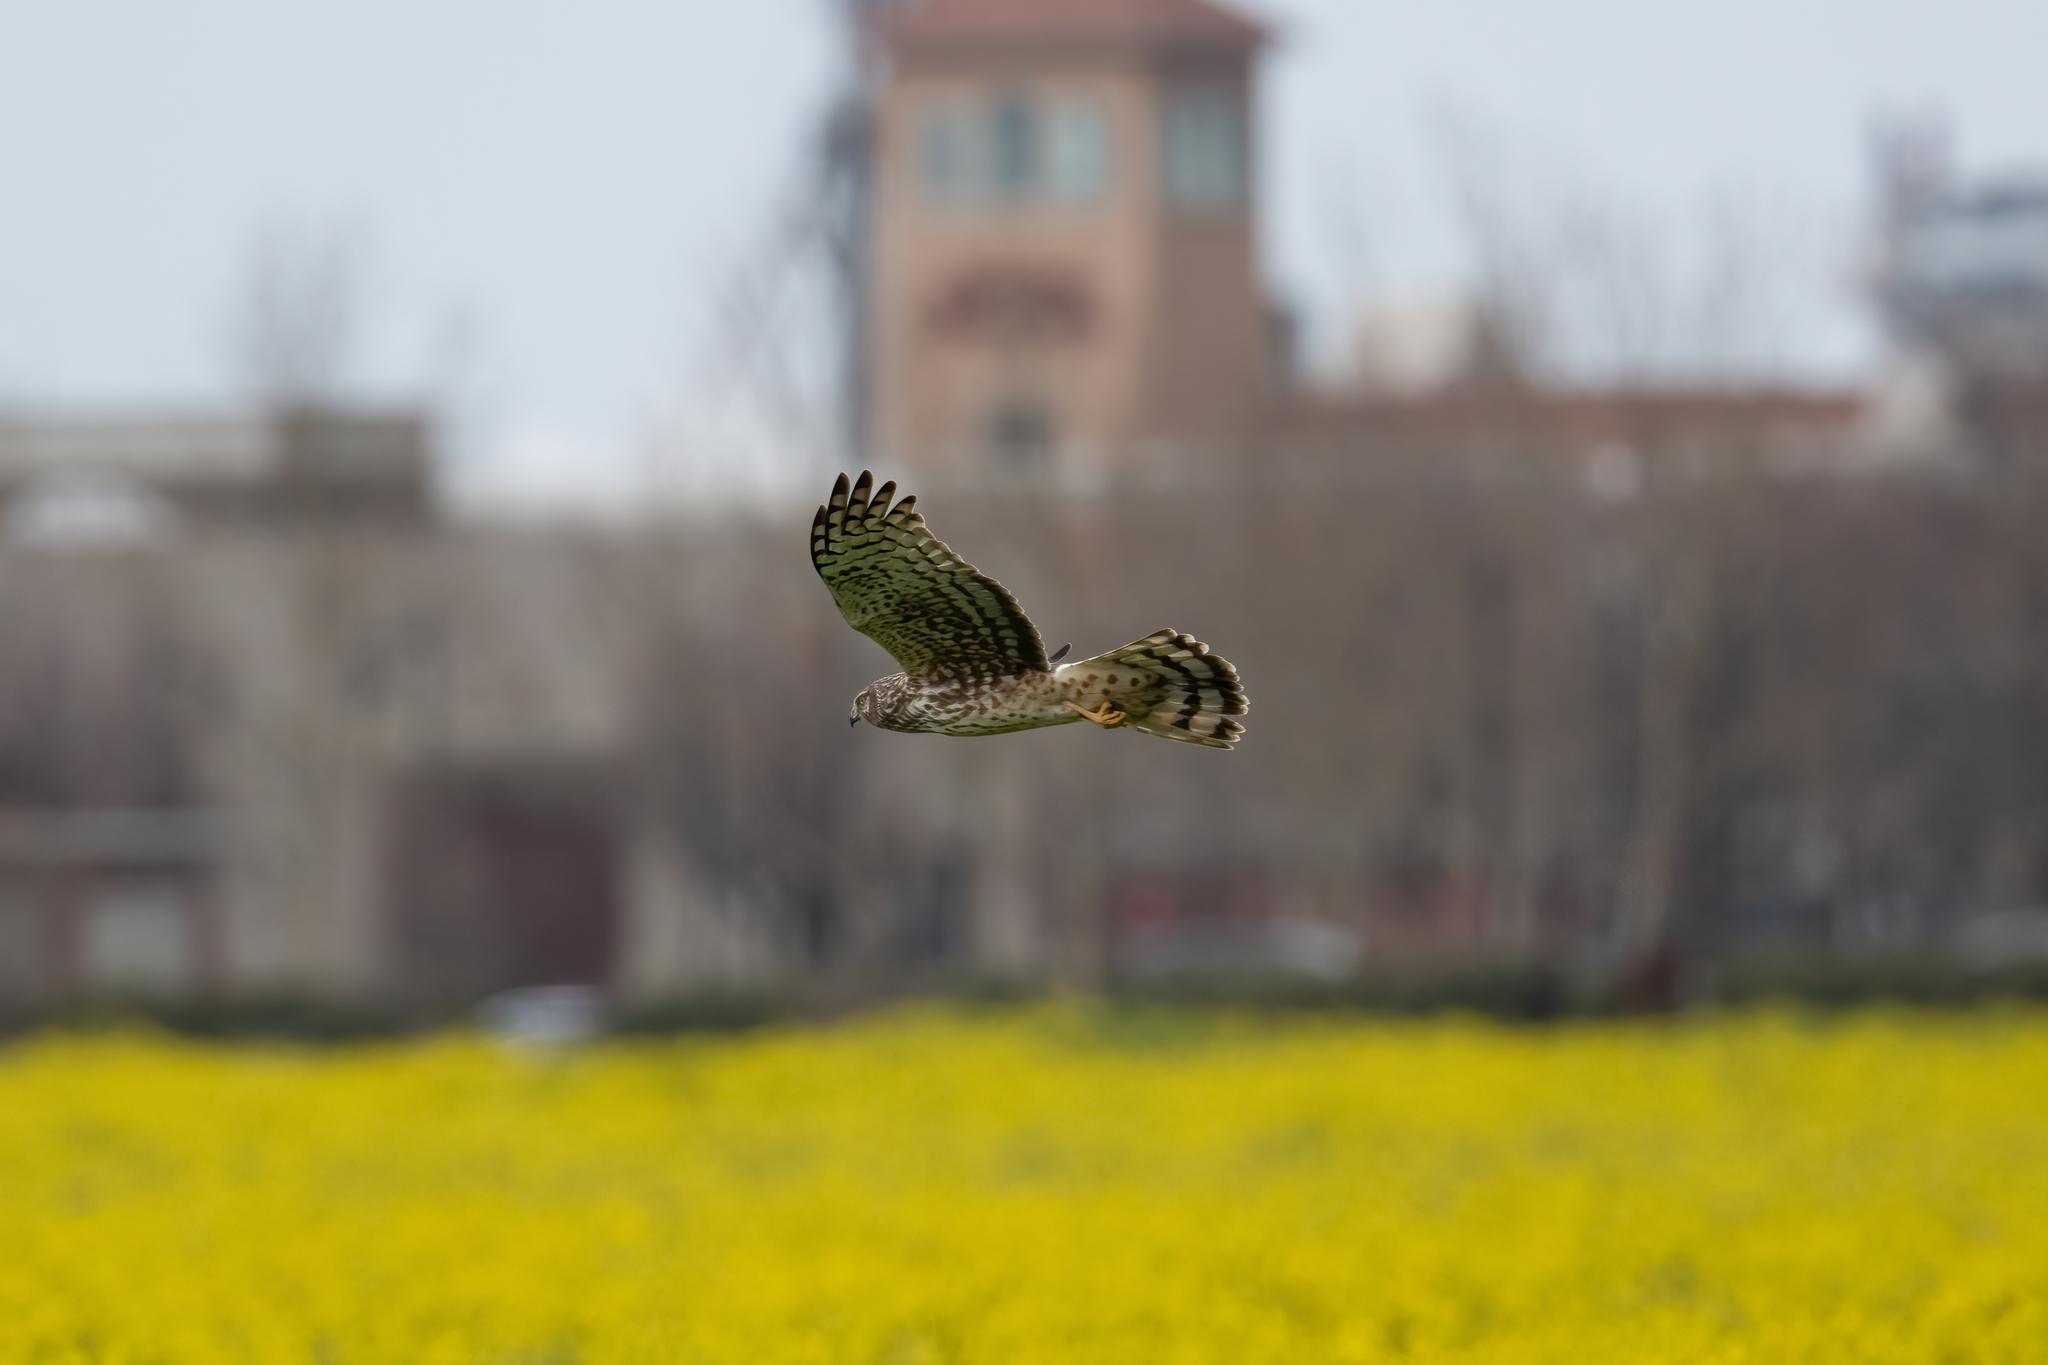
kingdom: Animalia
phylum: Chordata
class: Aves
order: Accipitriformes
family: Accipitridae
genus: Circus
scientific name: Circus cyaneus
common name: Hen harrier
